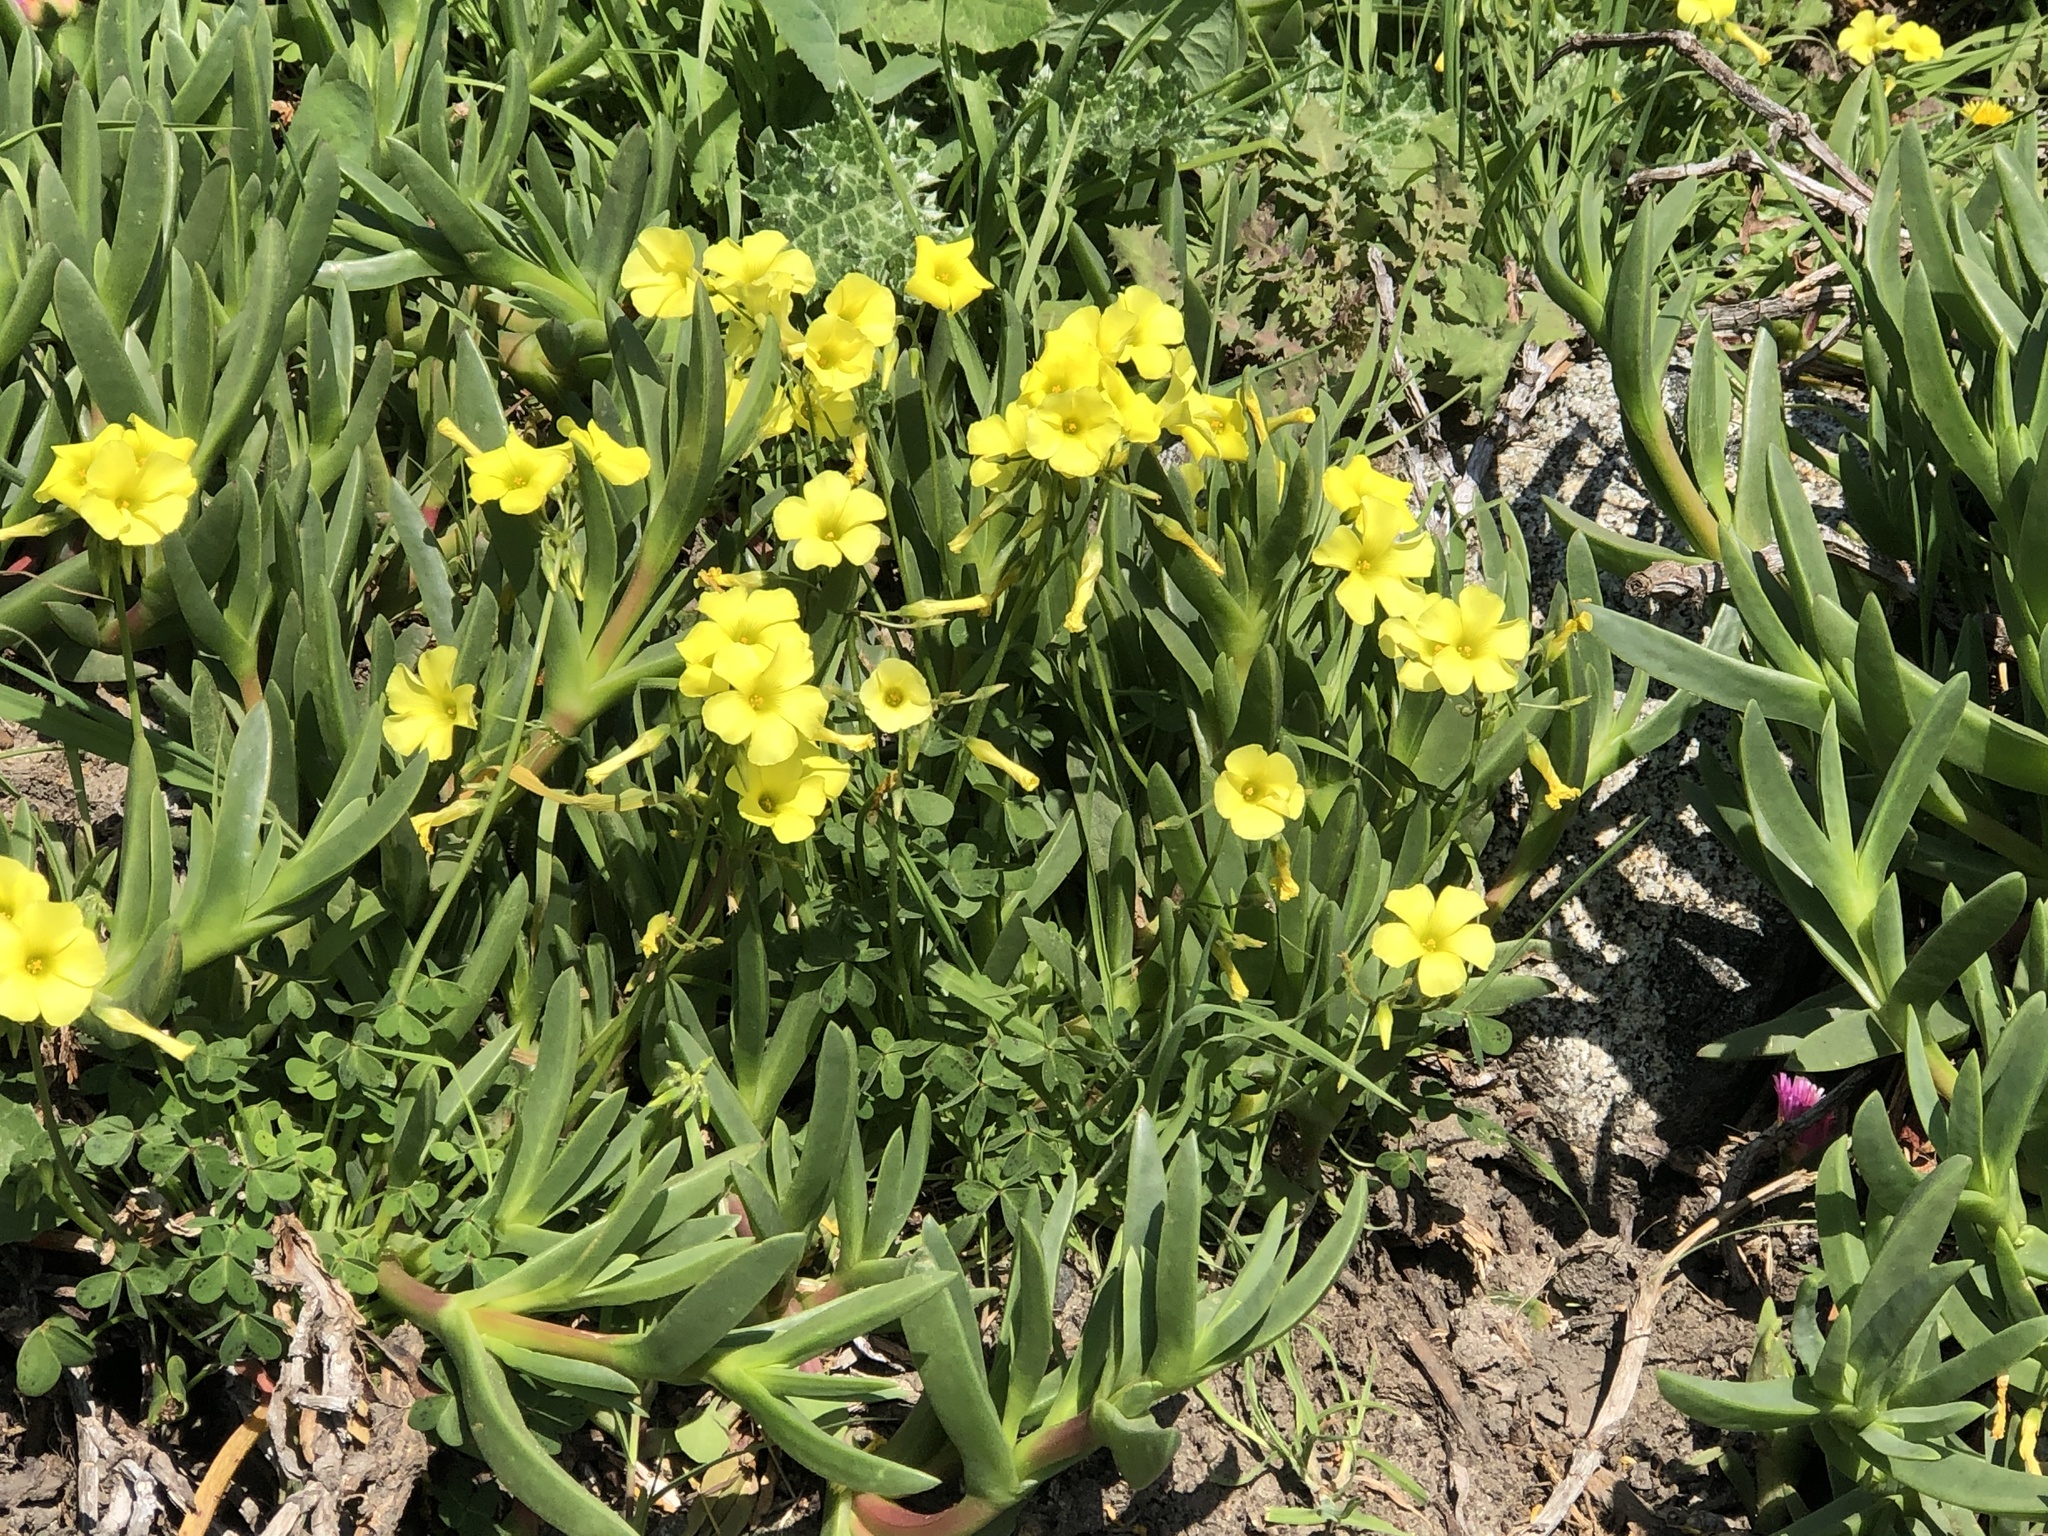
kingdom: Plantae
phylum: Tracheophyta
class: Magnoliopsida
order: Oxalidales
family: Oxalidaceae
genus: Oxalis
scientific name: Oxalis pes-caprae
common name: Bermuda-buttercup
